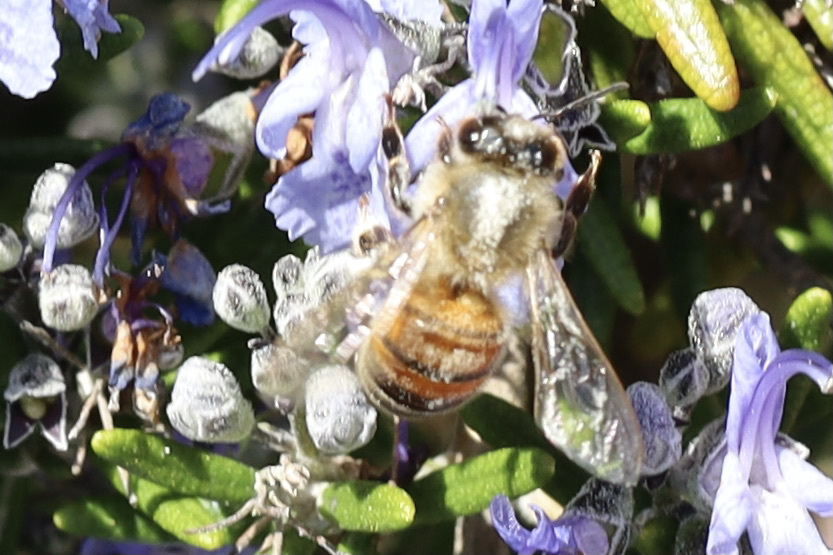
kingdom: Animalia
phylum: Arthropoda
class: Insecta
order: Hymenoptera
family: Apidae
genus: Apis
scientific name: Apis mellifera
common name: Honey bee
